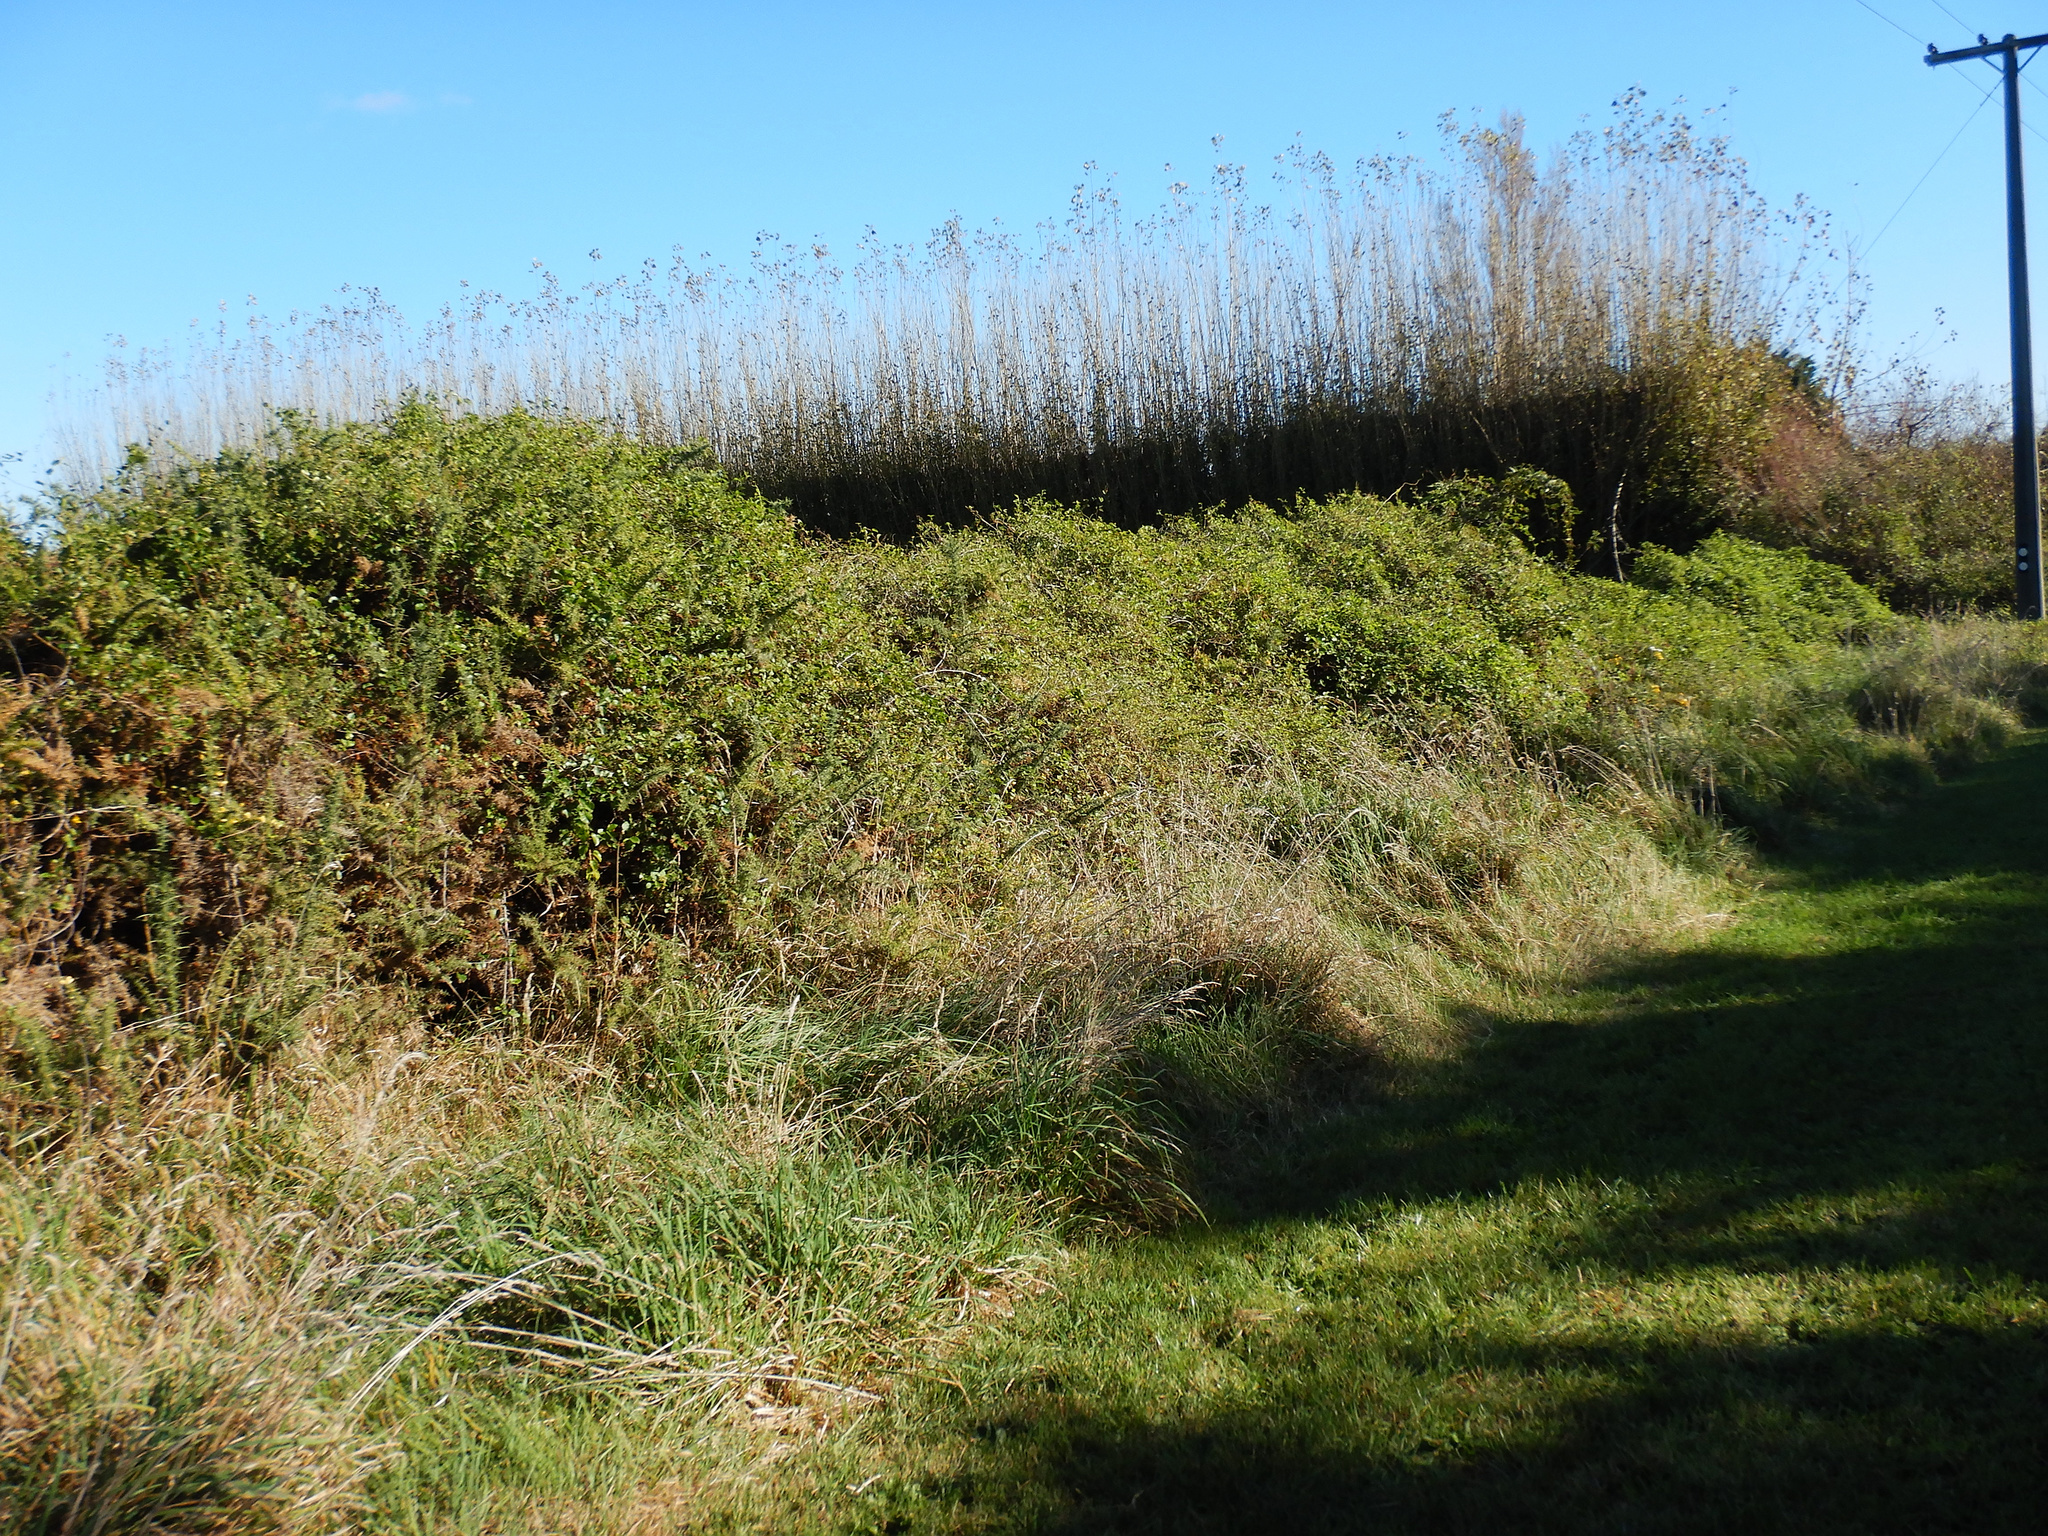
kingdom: Plantae
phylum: Tracheophyta
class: Magnoliopsida
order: Caryophyllales
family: Polygonaceae
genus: Muehlenbeckia
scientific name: Muehlenbeckia australis
